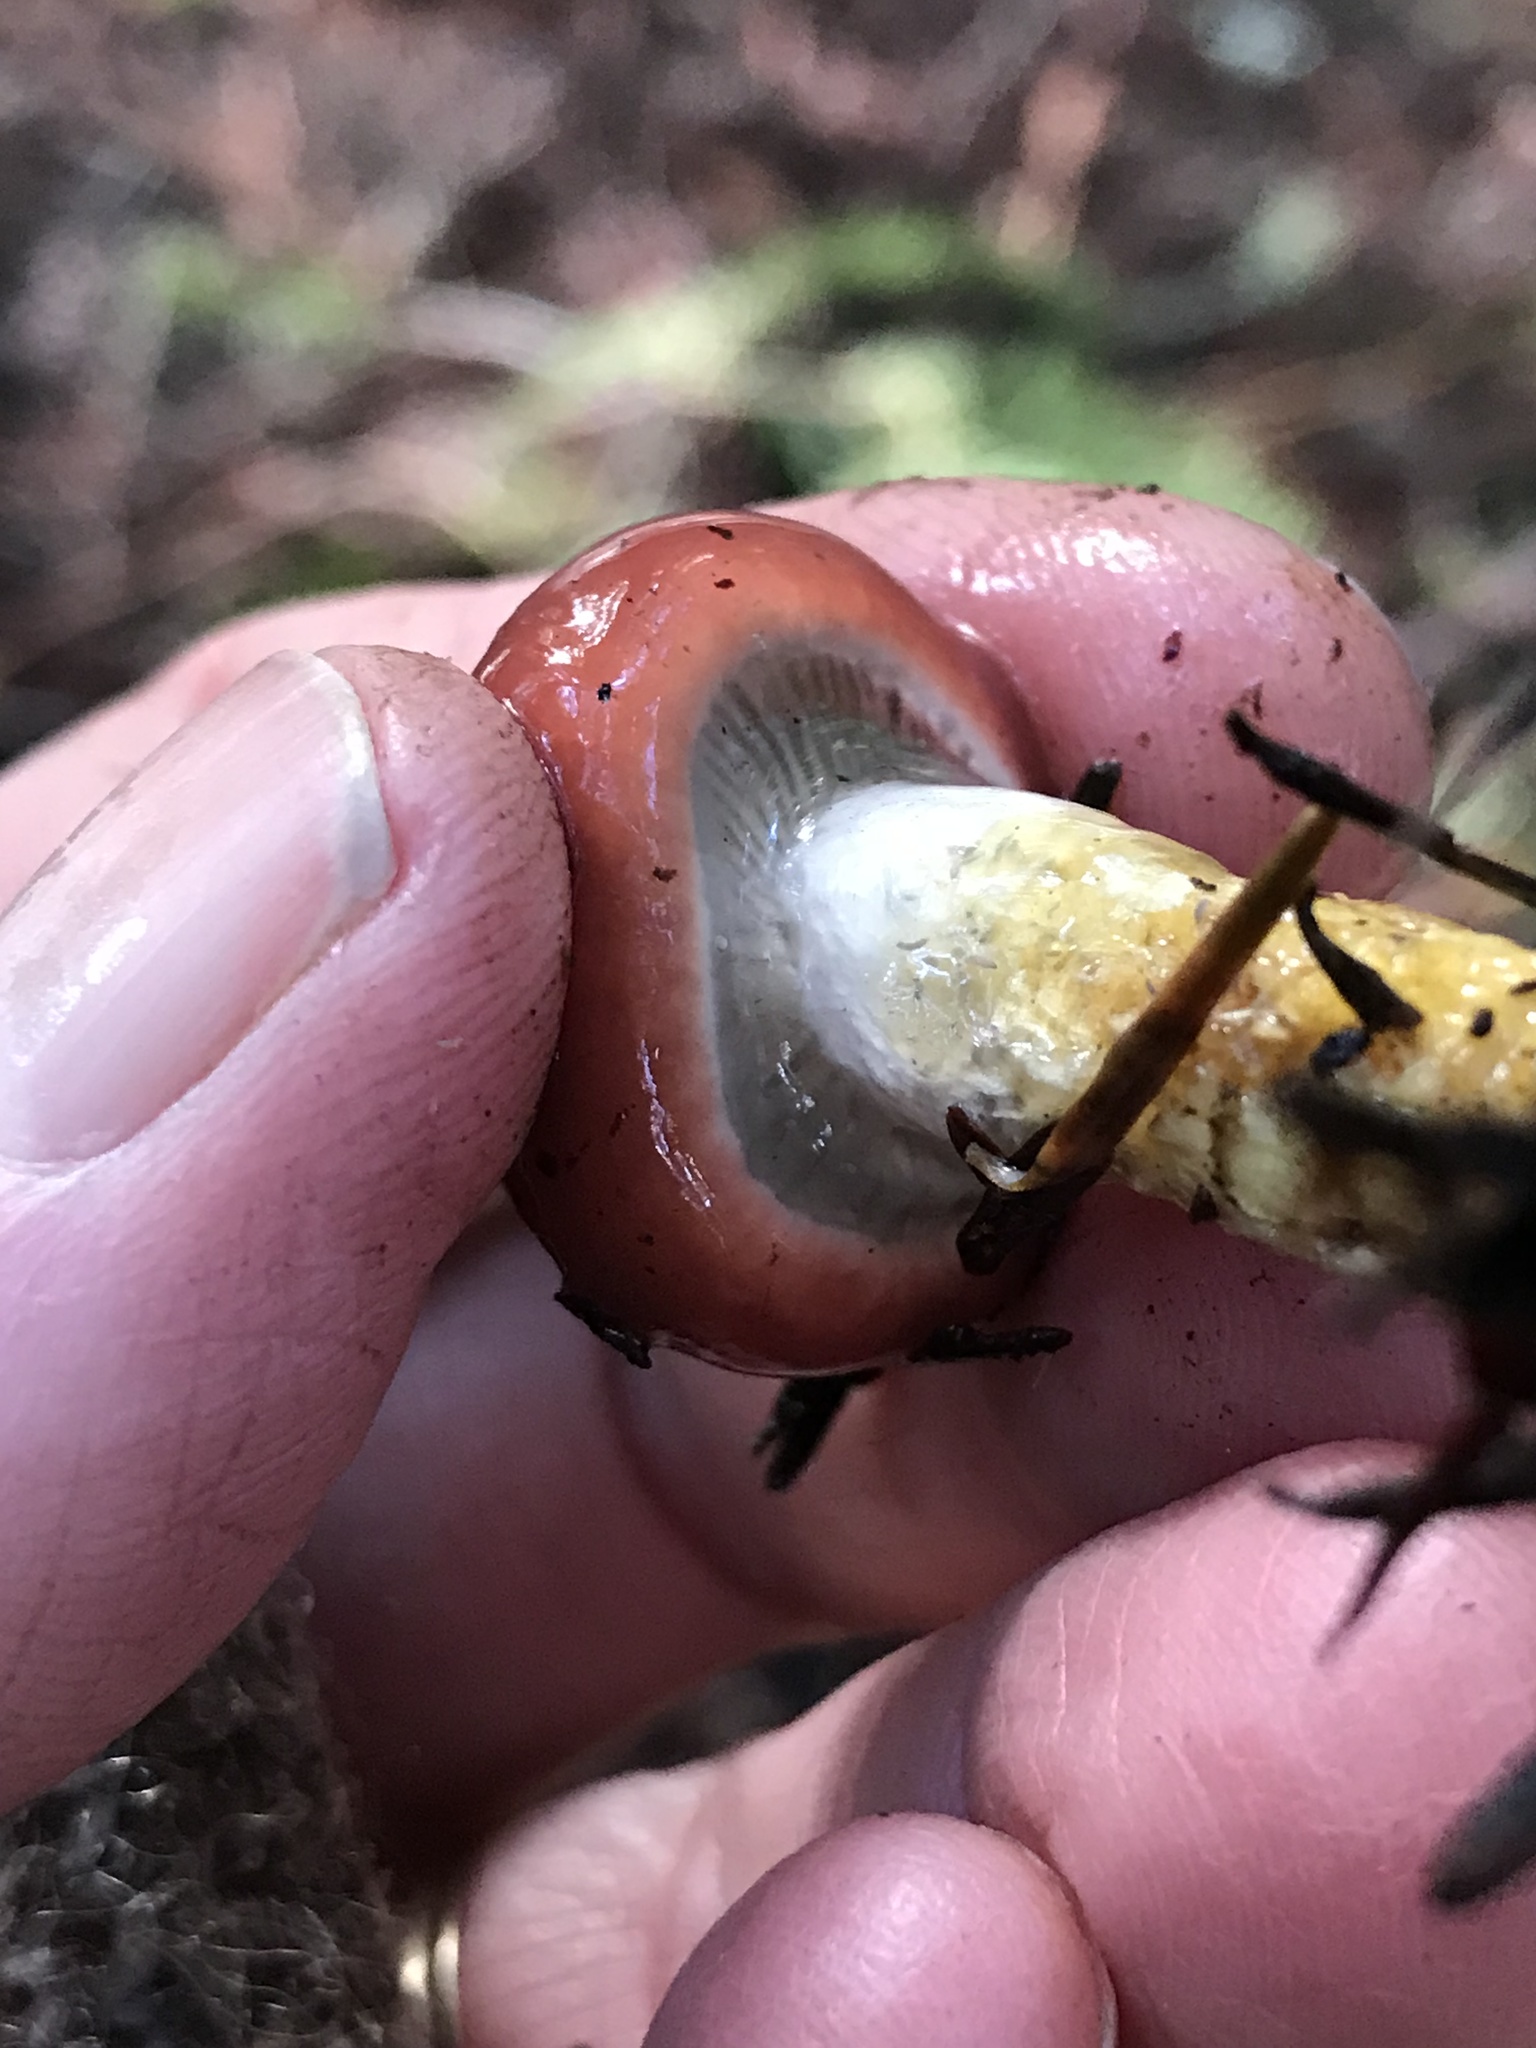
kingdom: Fungi
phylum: Basidiomycota
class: Agaricomycetes
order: Boletales
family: Gomphidiaceae
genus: Gomphidius
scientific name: Gomphidius subroseus
